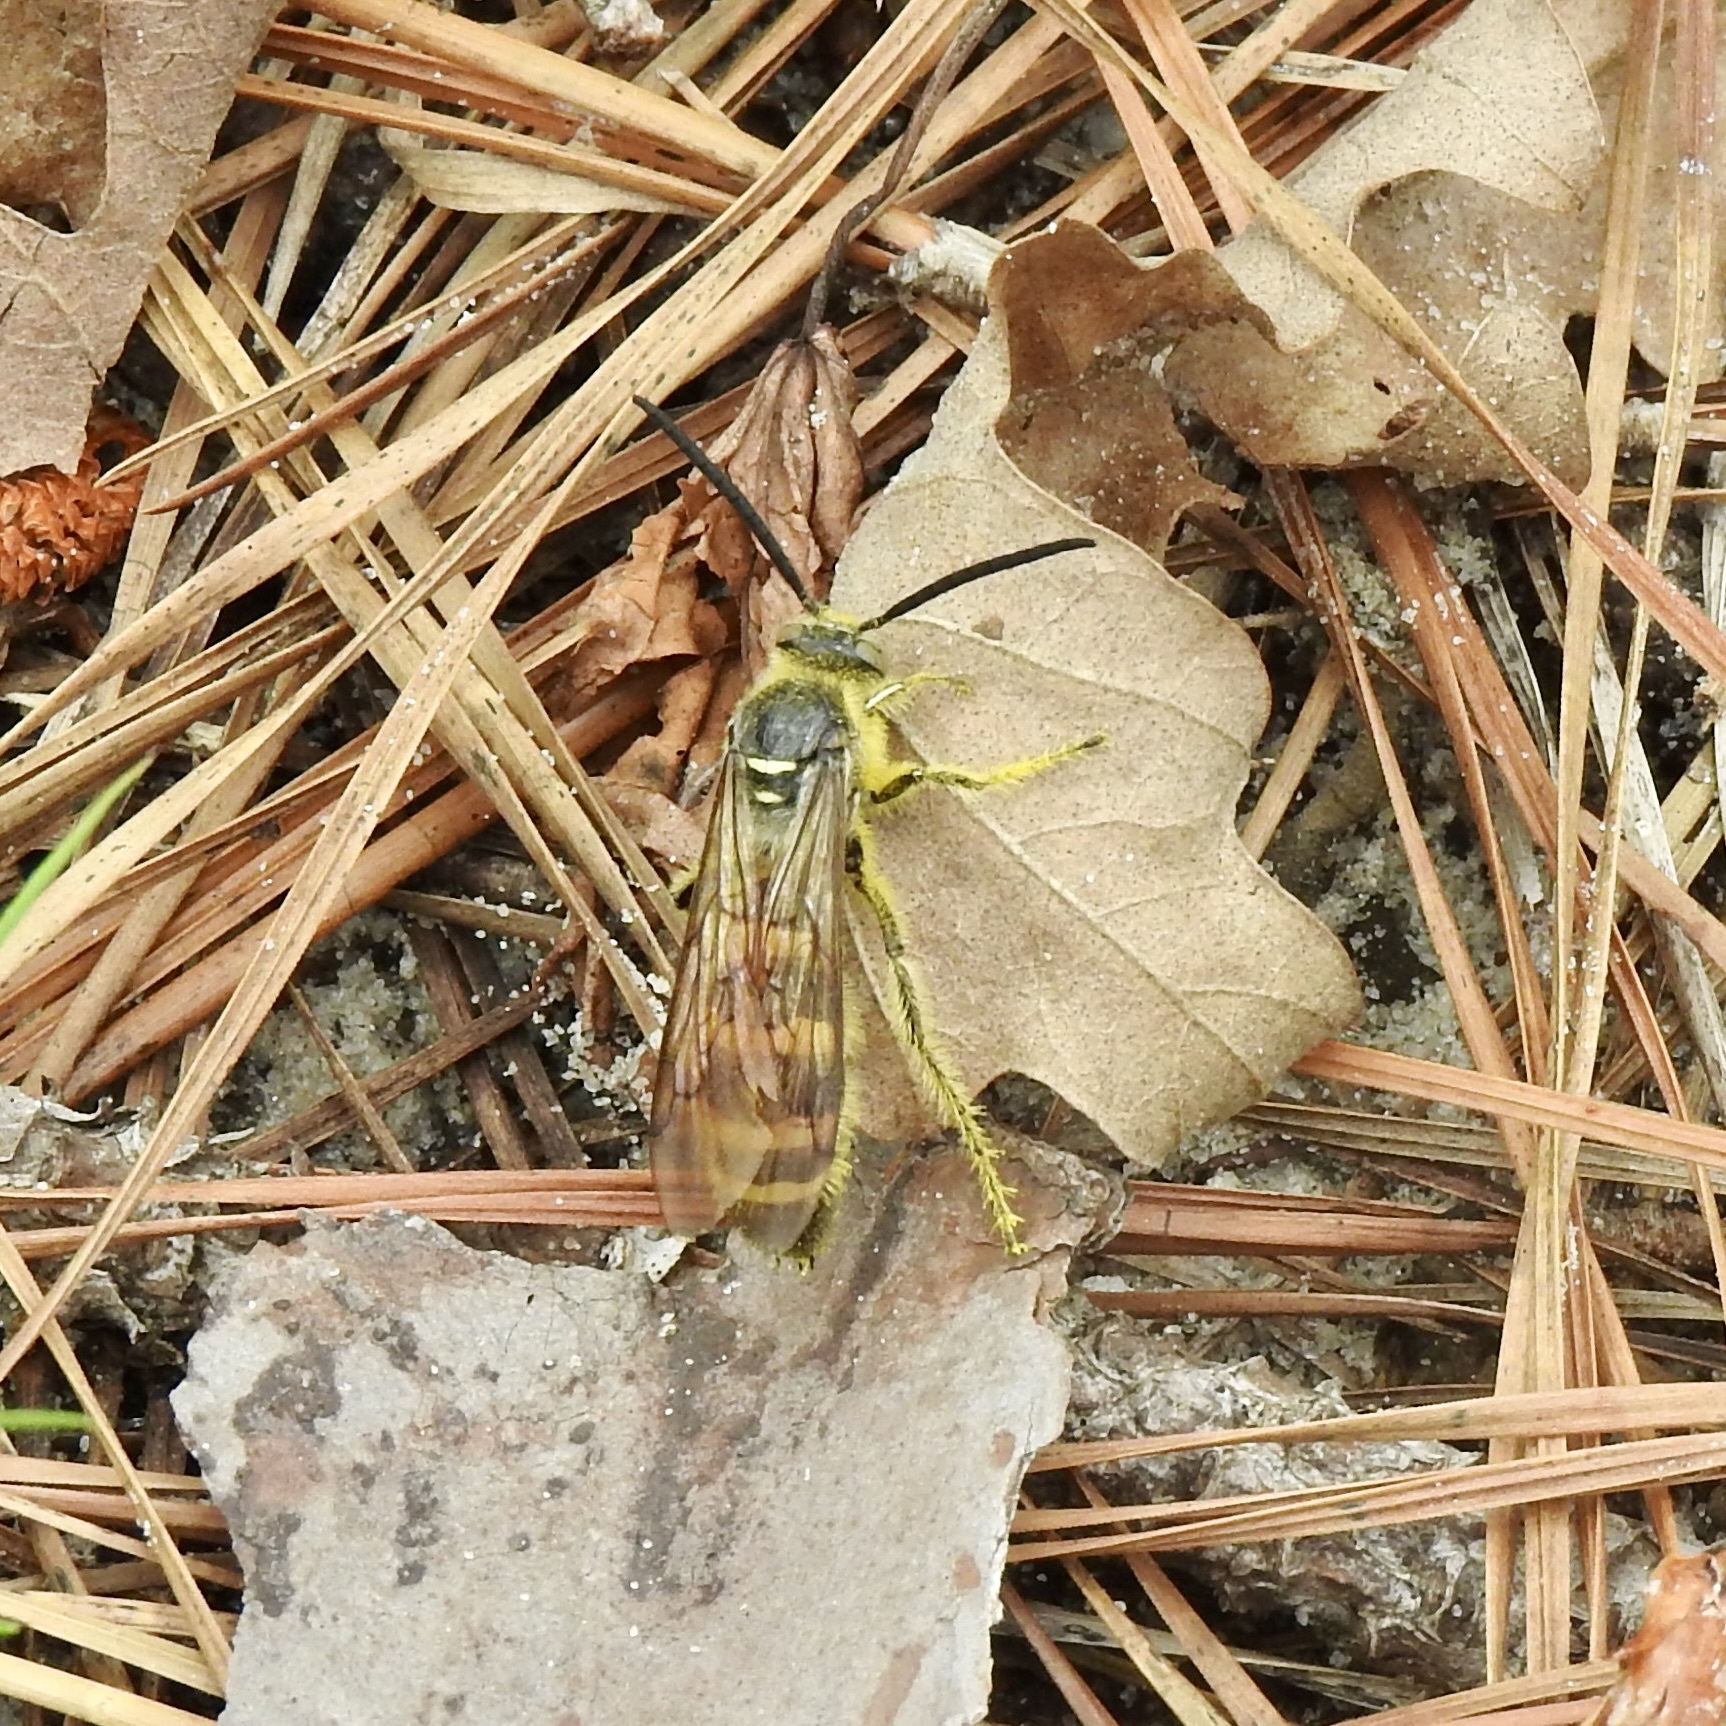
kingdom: Animalia
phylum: Arthropoda
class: Insecta
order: Hymenoptera
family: Scoliidae
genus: Dielis
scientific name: Dielis
